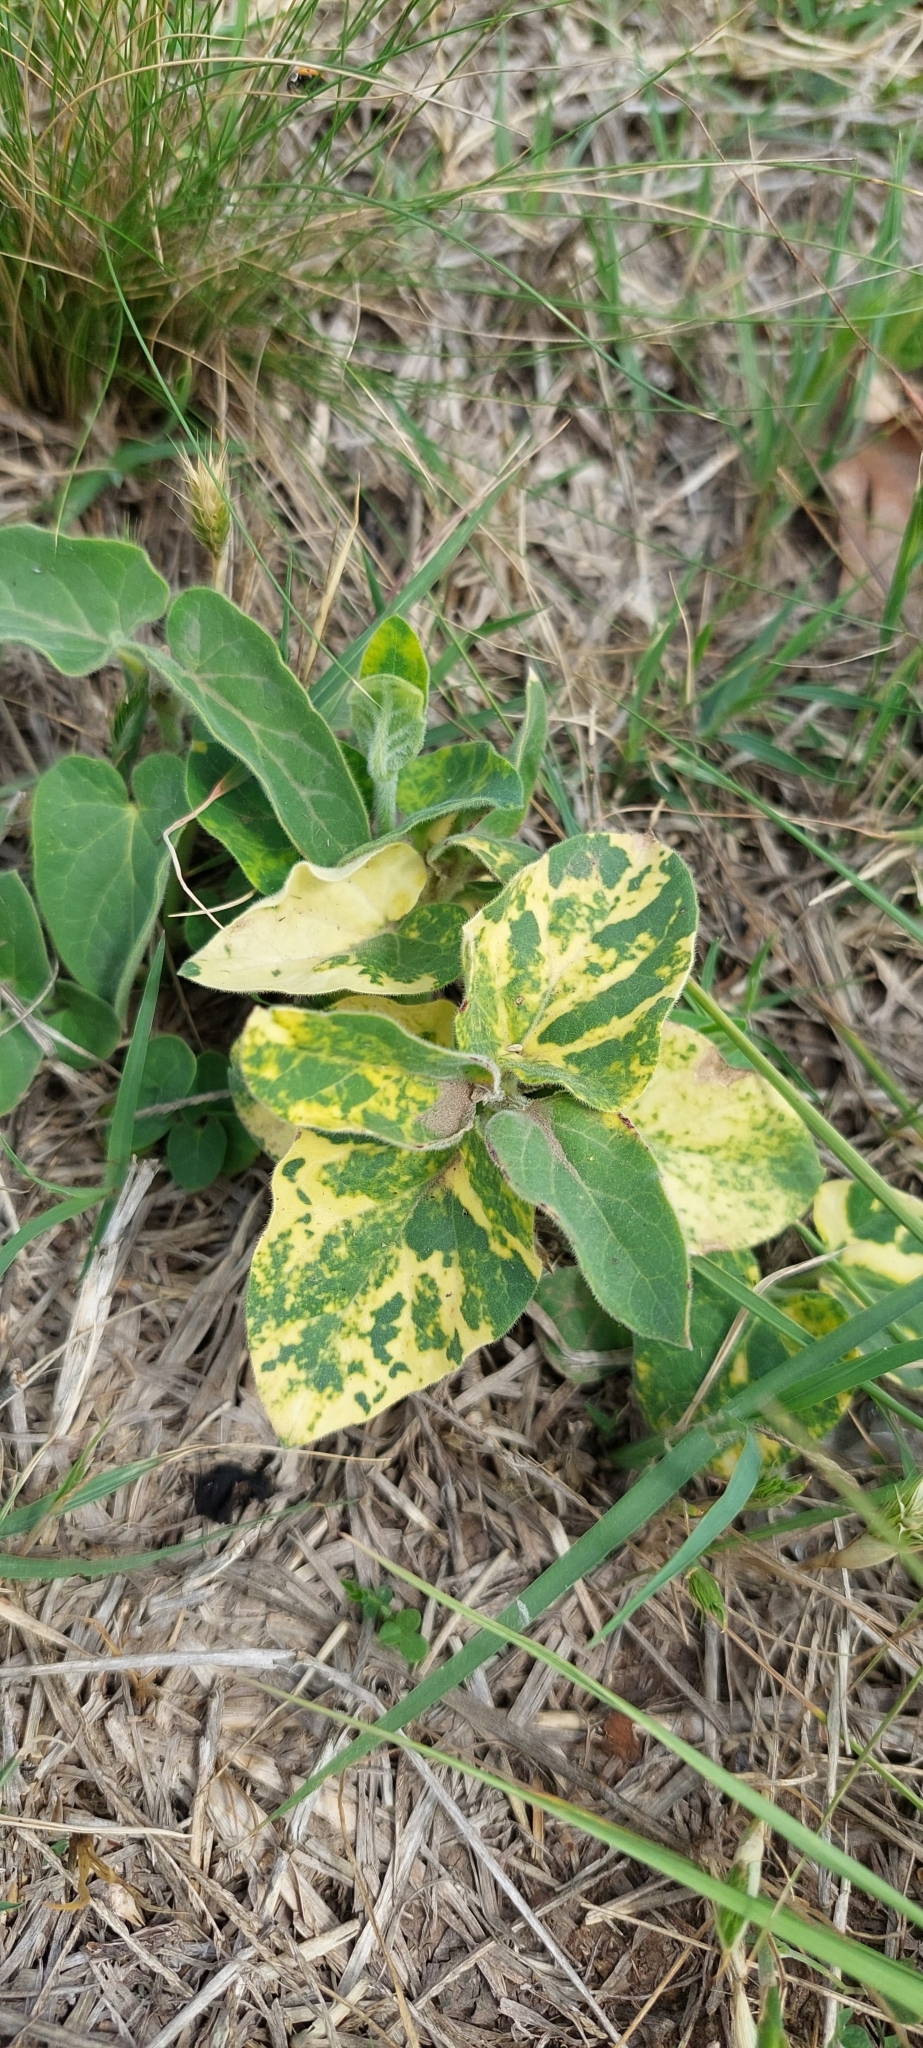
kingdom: Plantae
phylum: Tracheophyta
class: Magnoliopsida
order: Gentianales
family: Apocynaceae
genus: Oxypetalum
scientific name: Oxypetalum solanoides
